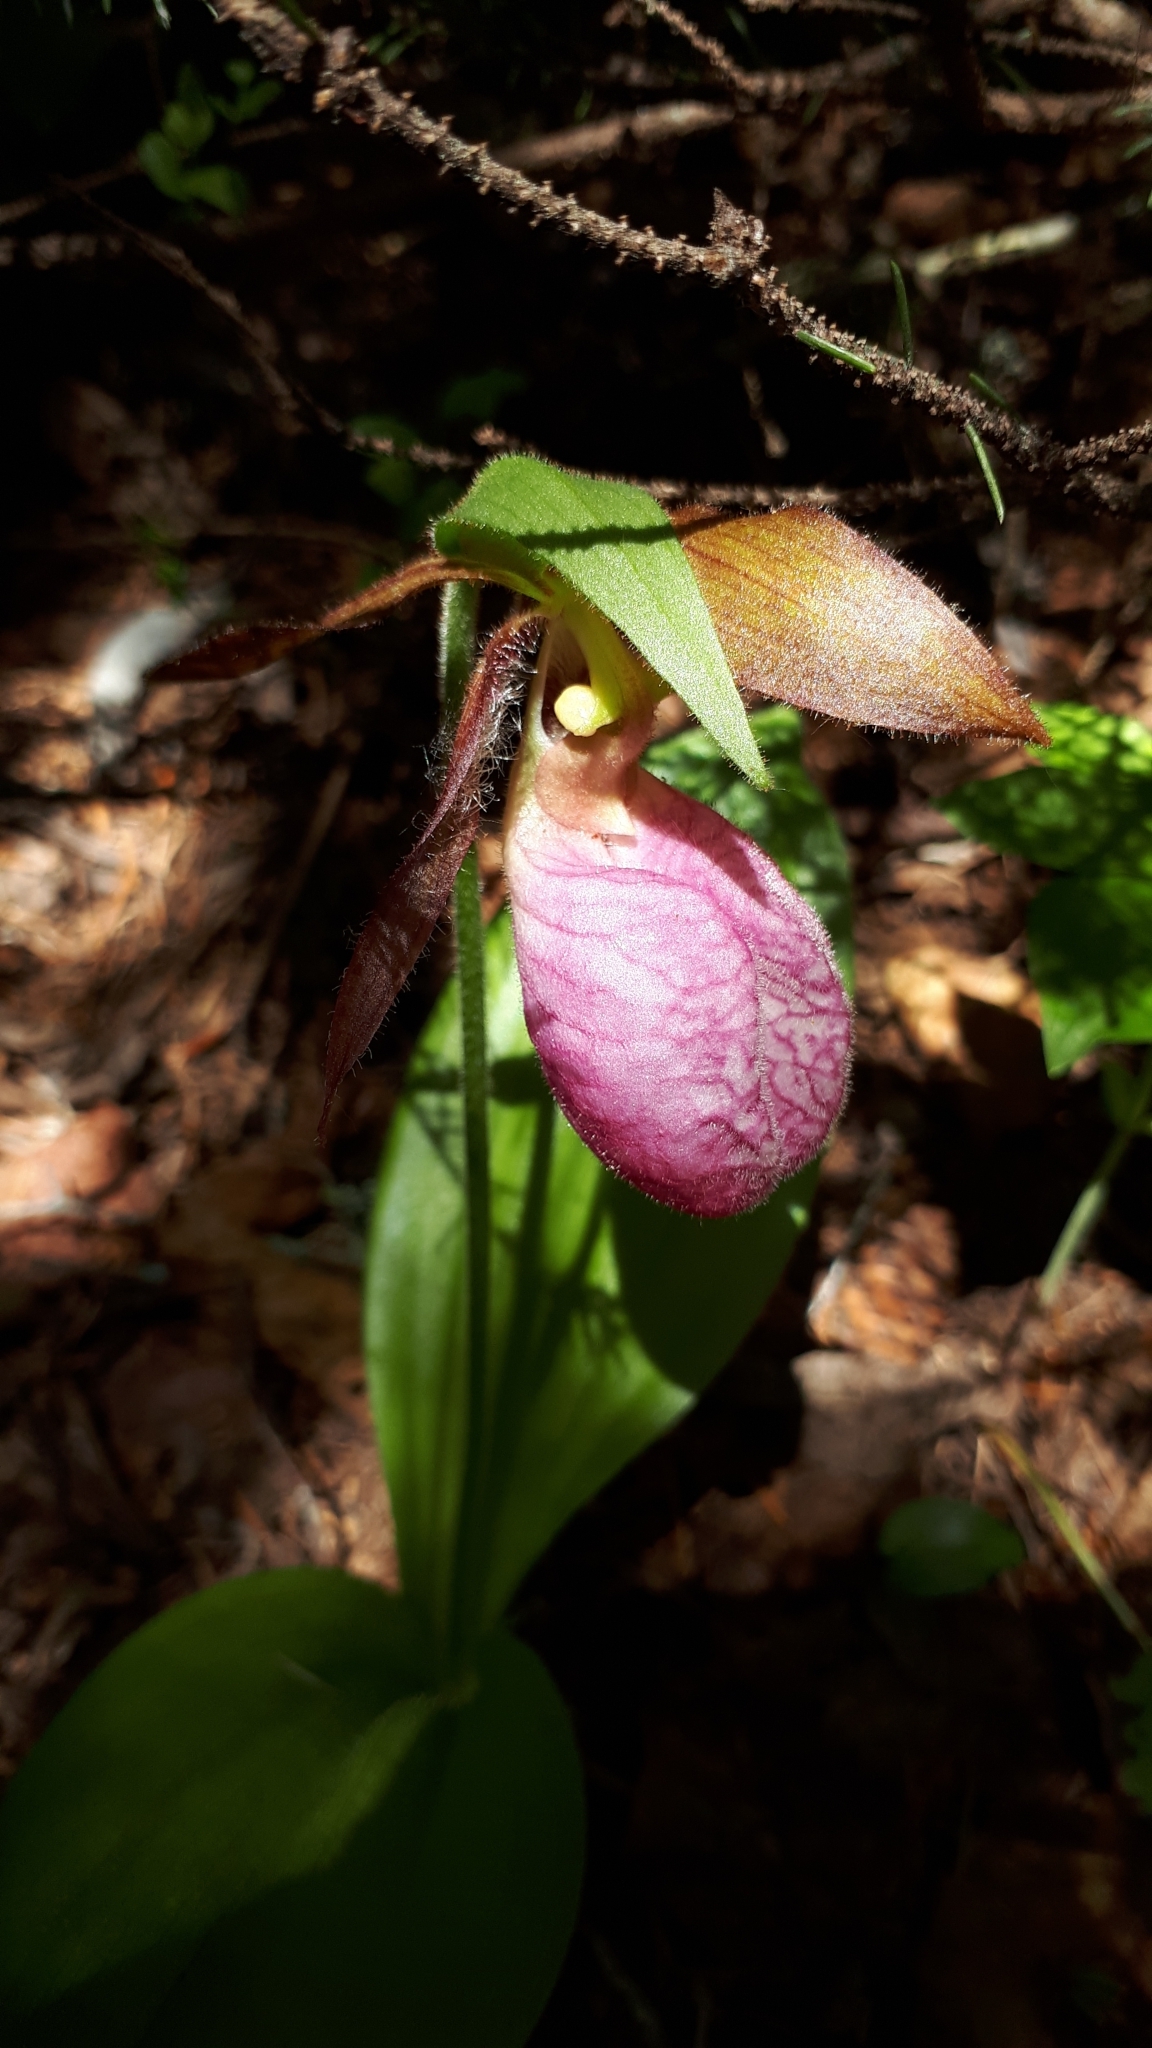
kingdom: Plantae
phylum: Tracheophyta
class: Liliopsida
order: Asparagales
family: Orchidaceae
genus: Cypripedium
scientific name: Cypripedium acaule
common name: Pink lady's-slipper
